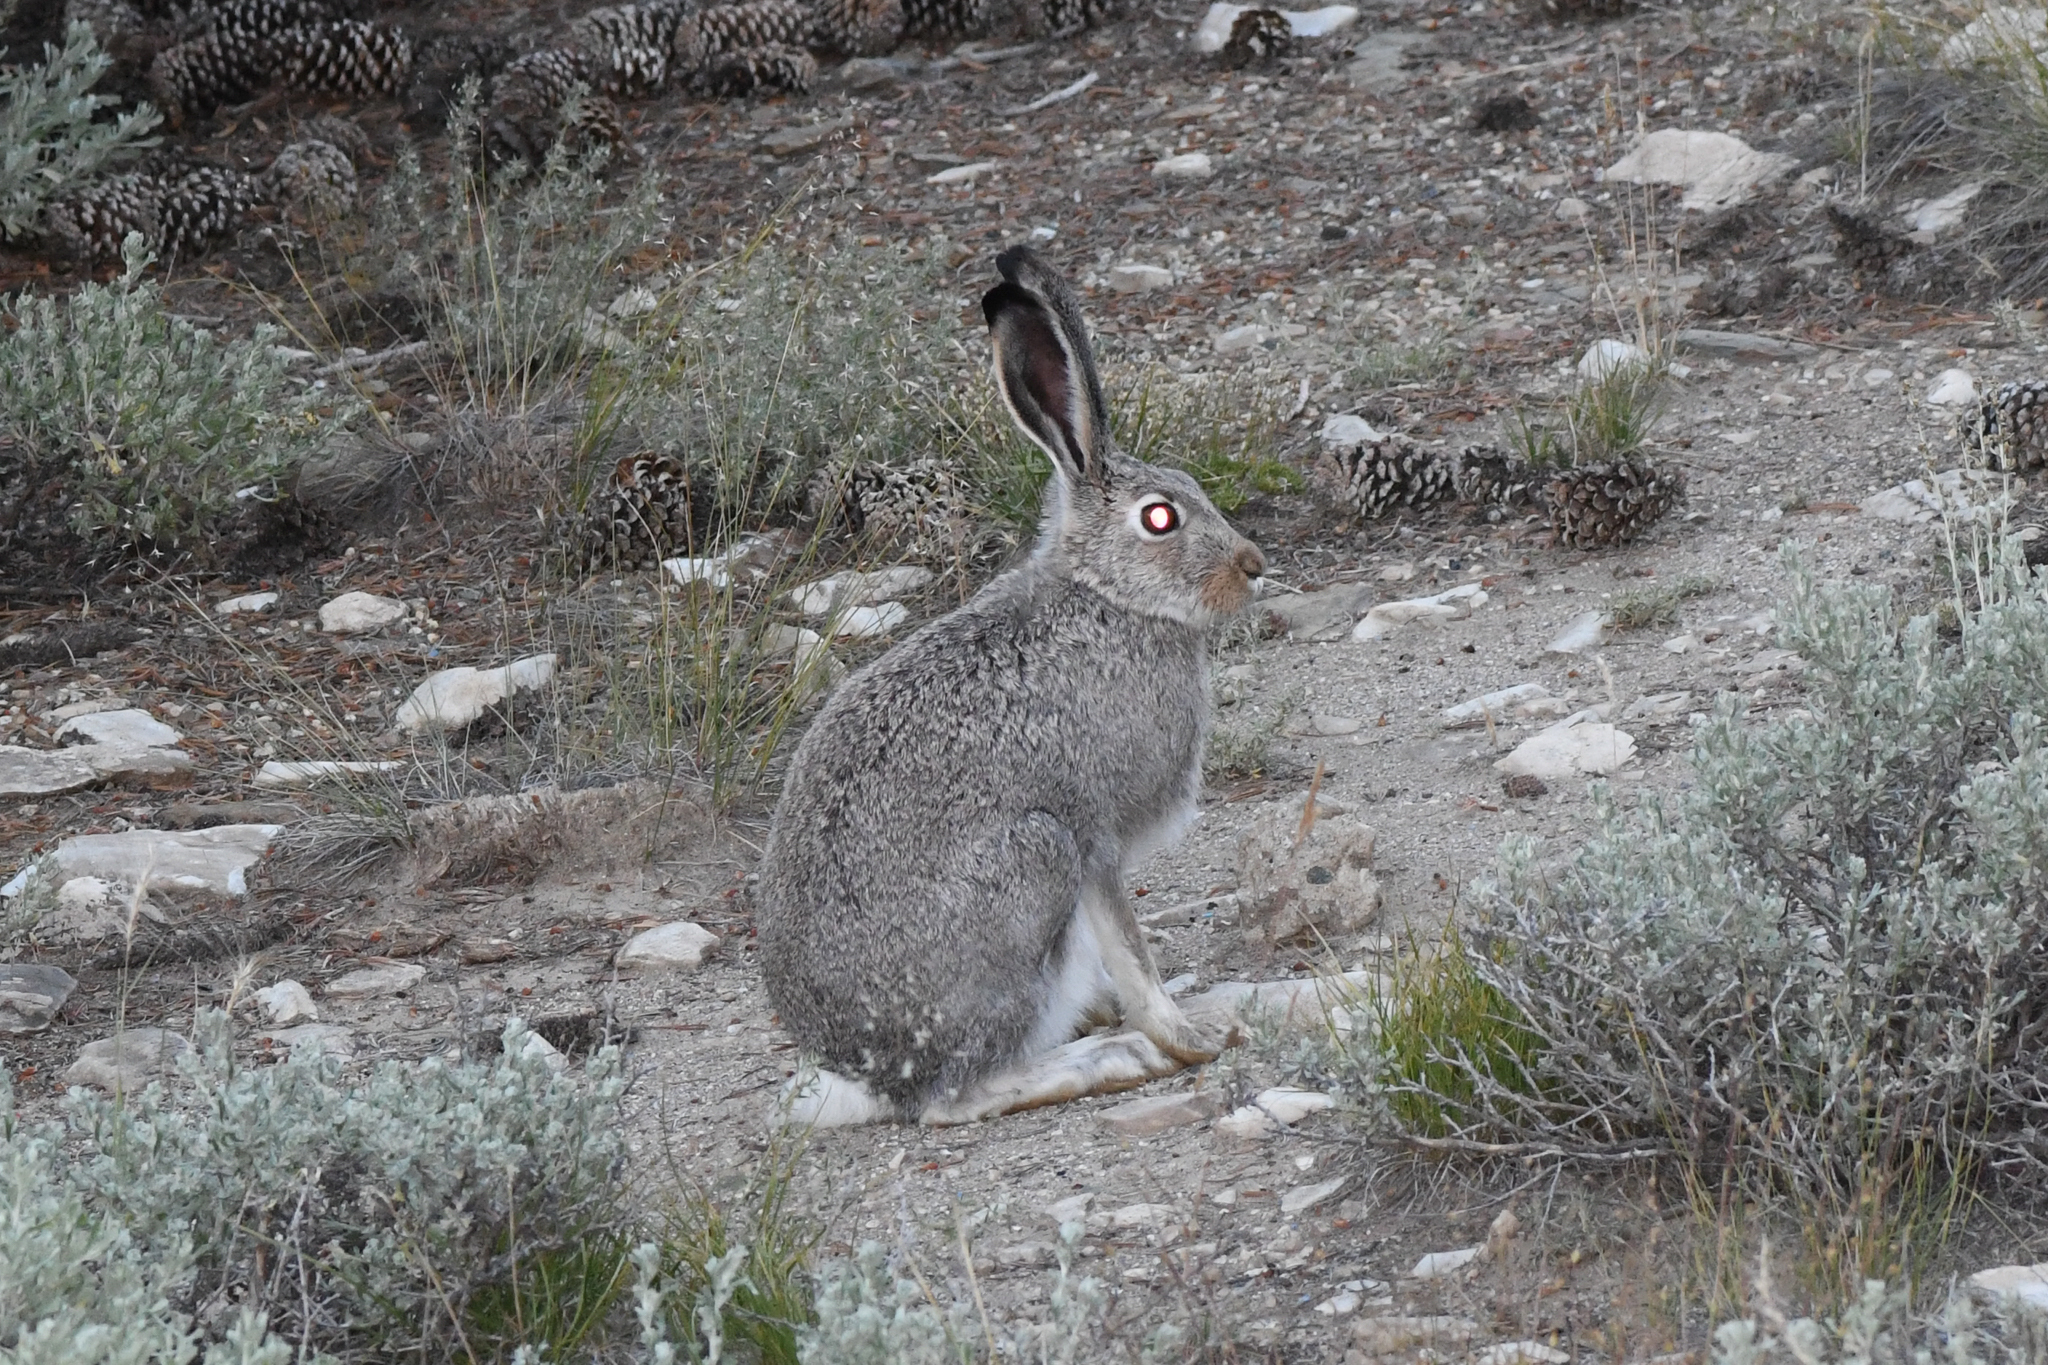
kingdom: Animalia
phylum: Chordata
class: Mammalia
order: Lagomorpha
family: Leporidae
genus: Lepus
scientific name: Lepus townsendii
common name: White-tailed jackrabbit
